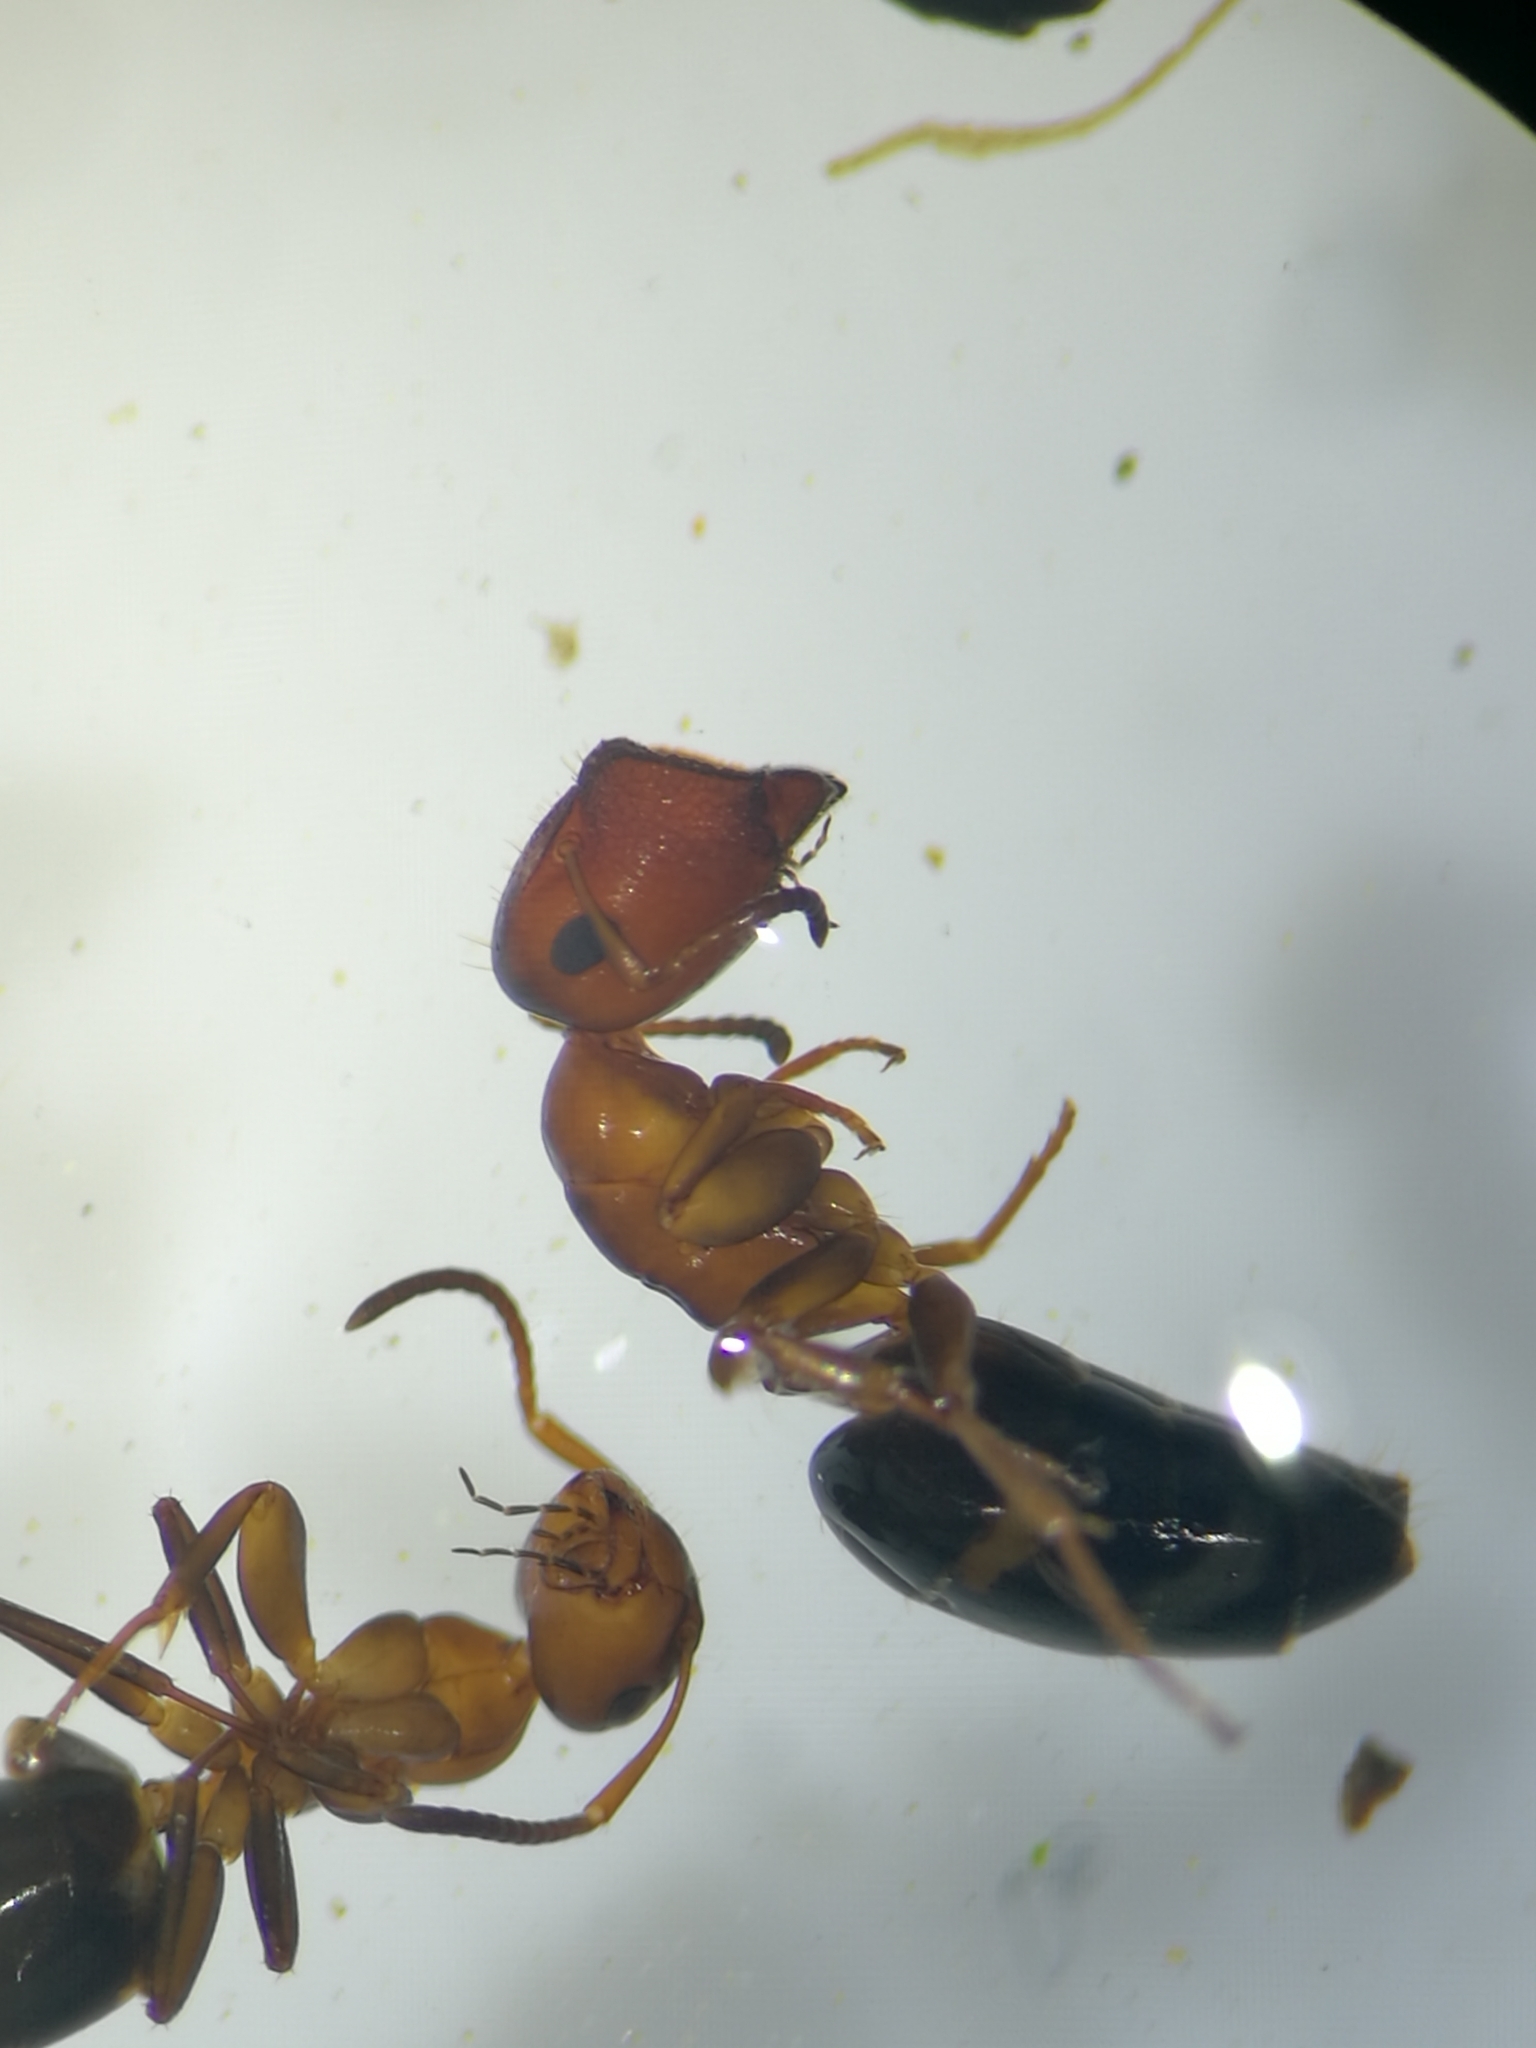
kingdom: Animalia
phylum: Arthropoda
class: Insecta
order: Hymenoptera
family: Formicidae
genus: Camponotus
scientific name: Camponotus truncatus
